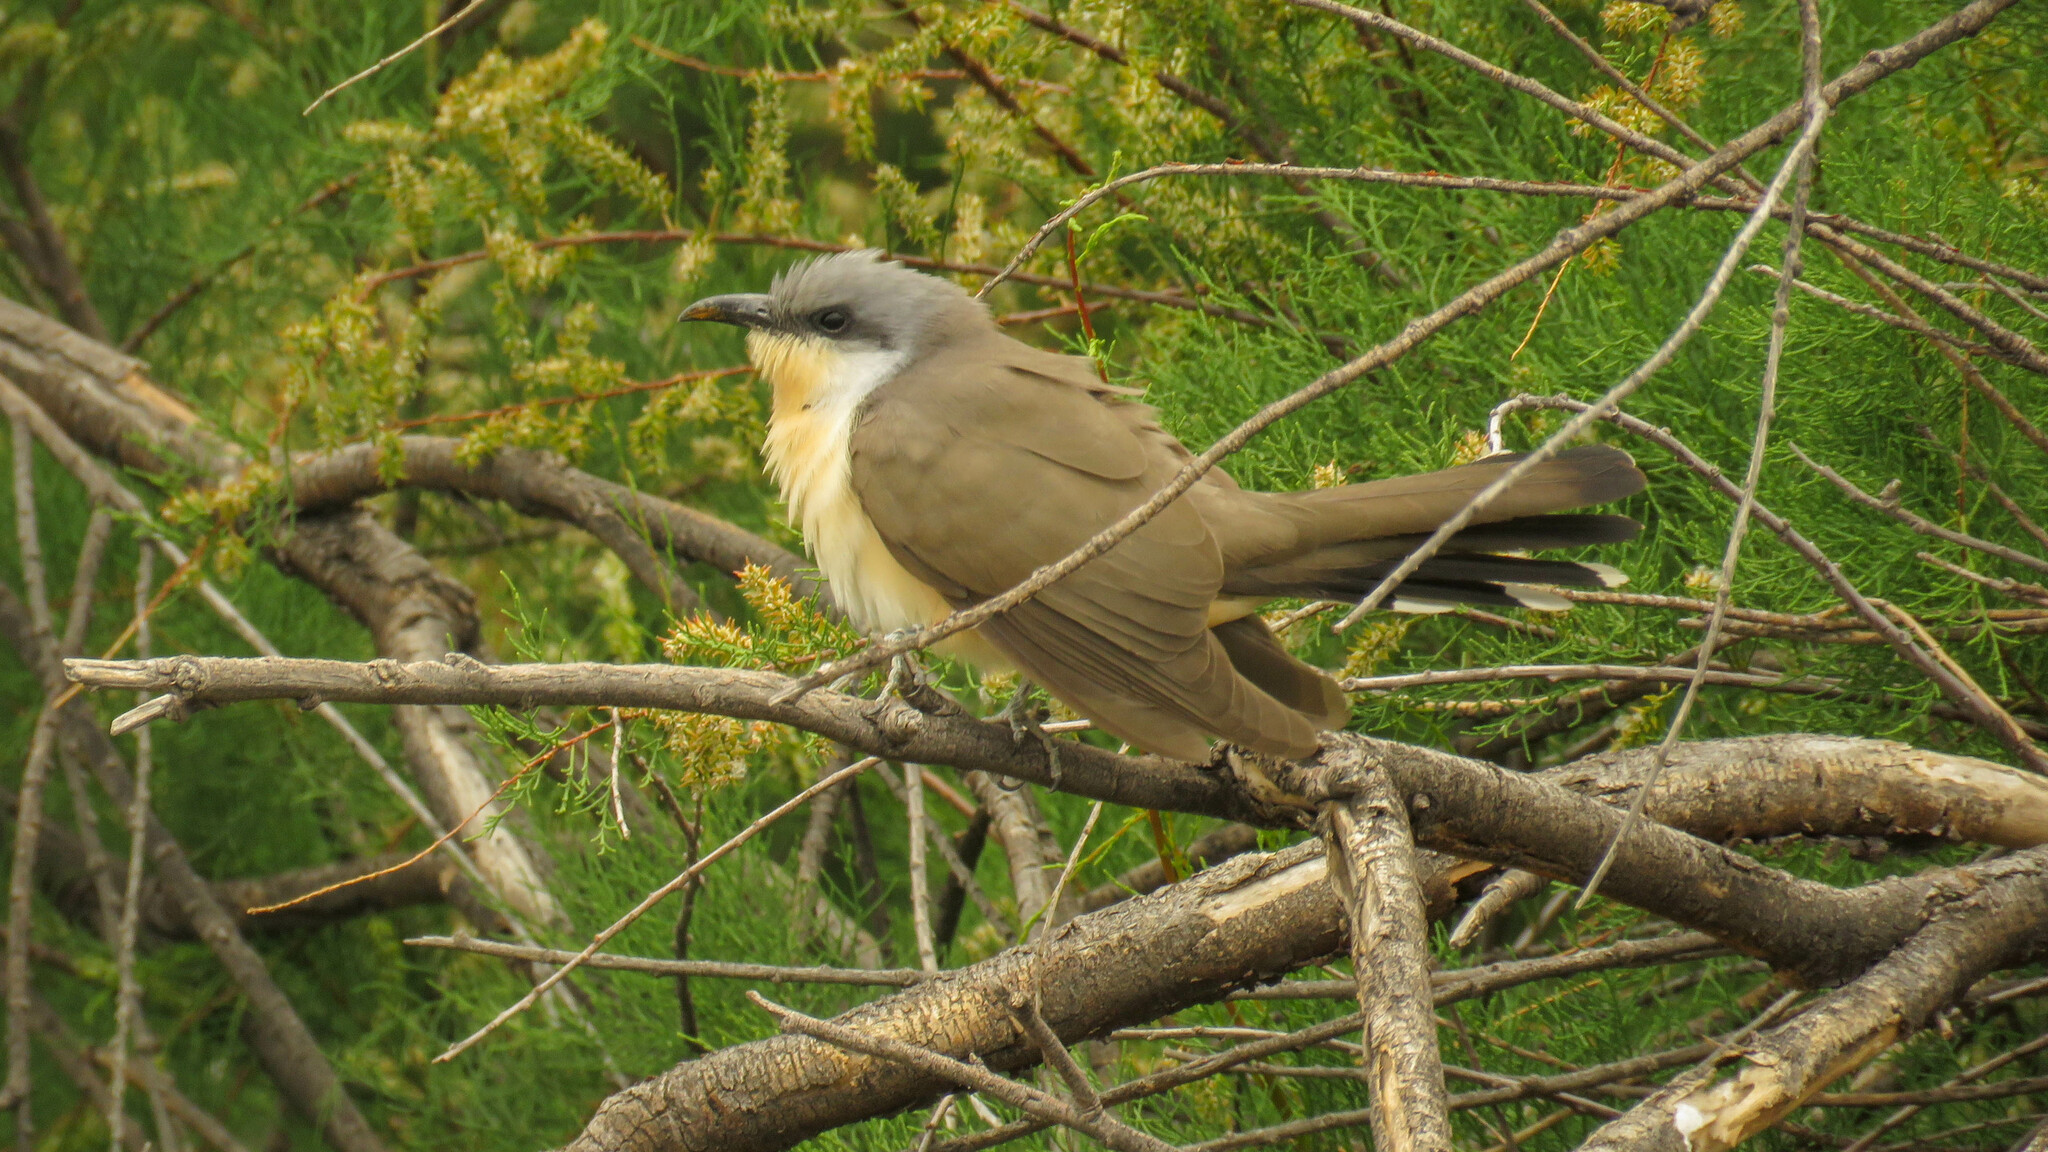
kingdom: Animalia
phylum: Chordata
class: Aves
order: Cuculiformes
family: Cuculidae
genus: Coccyzus
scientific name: Coccyzus melacoryphus
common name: Dark-billed cuckoo
